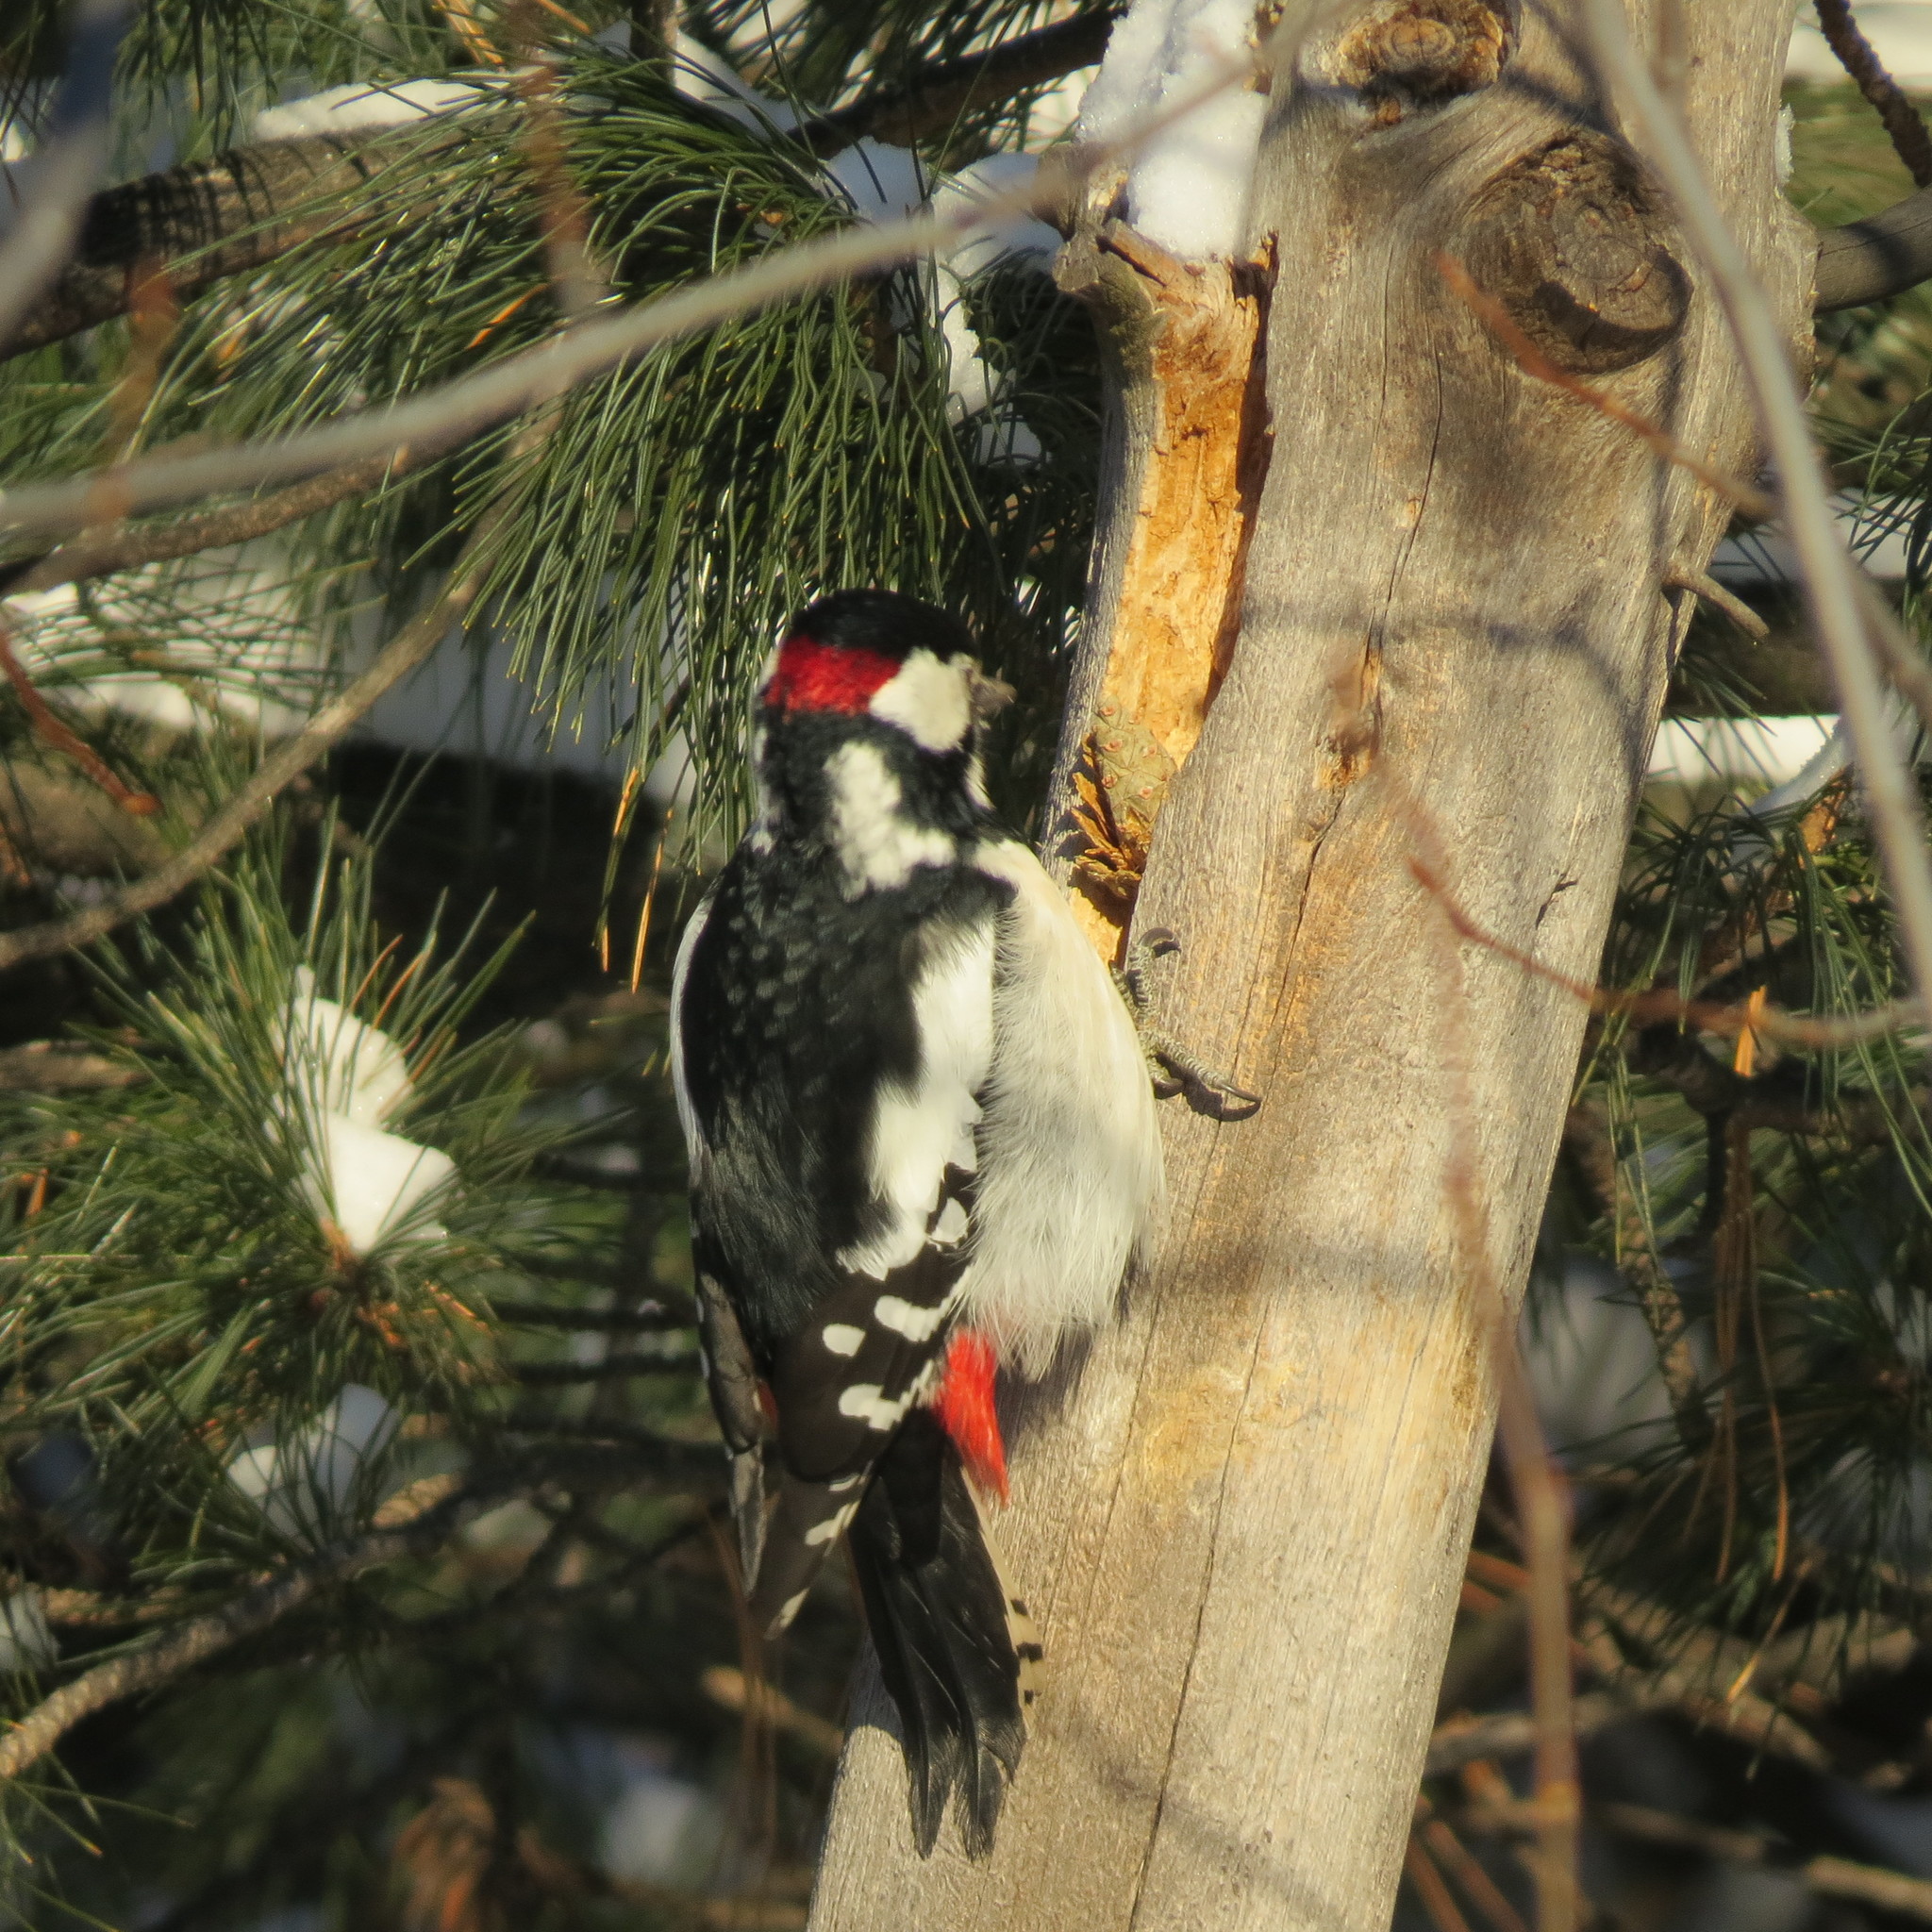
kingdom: Animalia
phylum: Chordata
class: Aves
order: Piciformes
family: Picidae
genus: Dendrocopos
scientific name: Dendrocopos major
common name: Great spotted woodpecker
